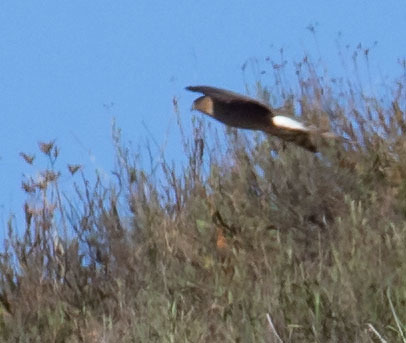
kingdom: Animalia
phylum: Chordata
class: Aves
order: Accipitriformes
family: Accipitridae
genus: Accipiter
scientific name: Accipiter cooperii
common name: Cooper's hawk
